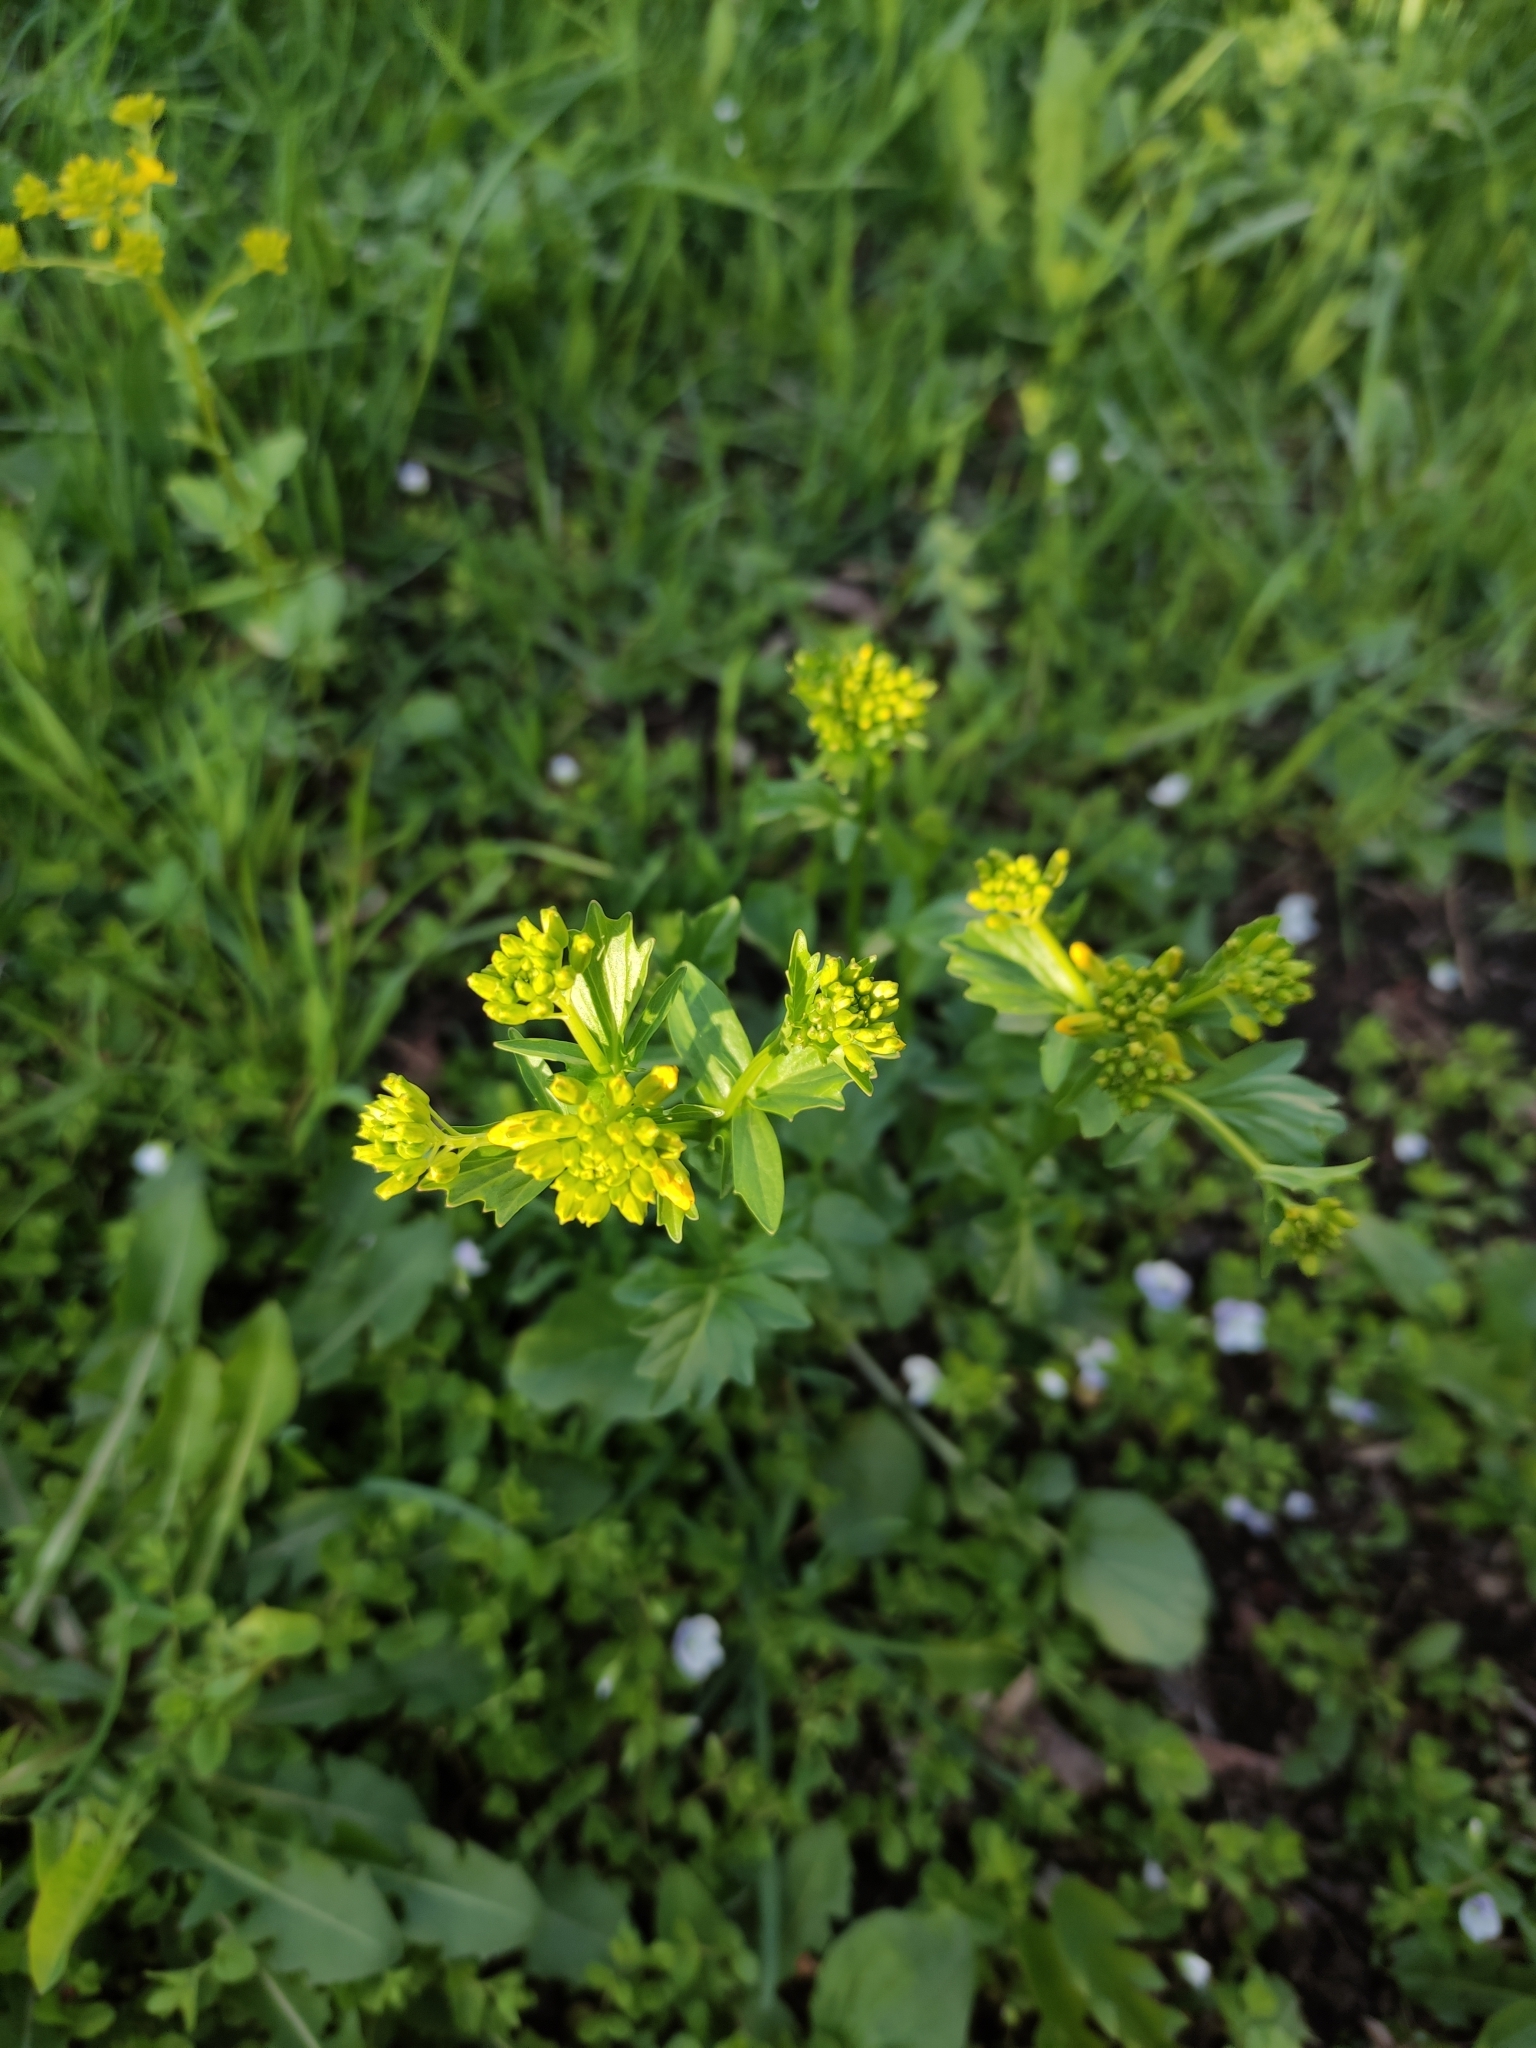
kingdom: Plantae
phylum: Tracheophyta
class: Magnoliopsida
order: Brassicales
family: Brassicaceae
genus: Barbarea
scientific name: Barbarea vulgaris
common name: Cressy-greens
